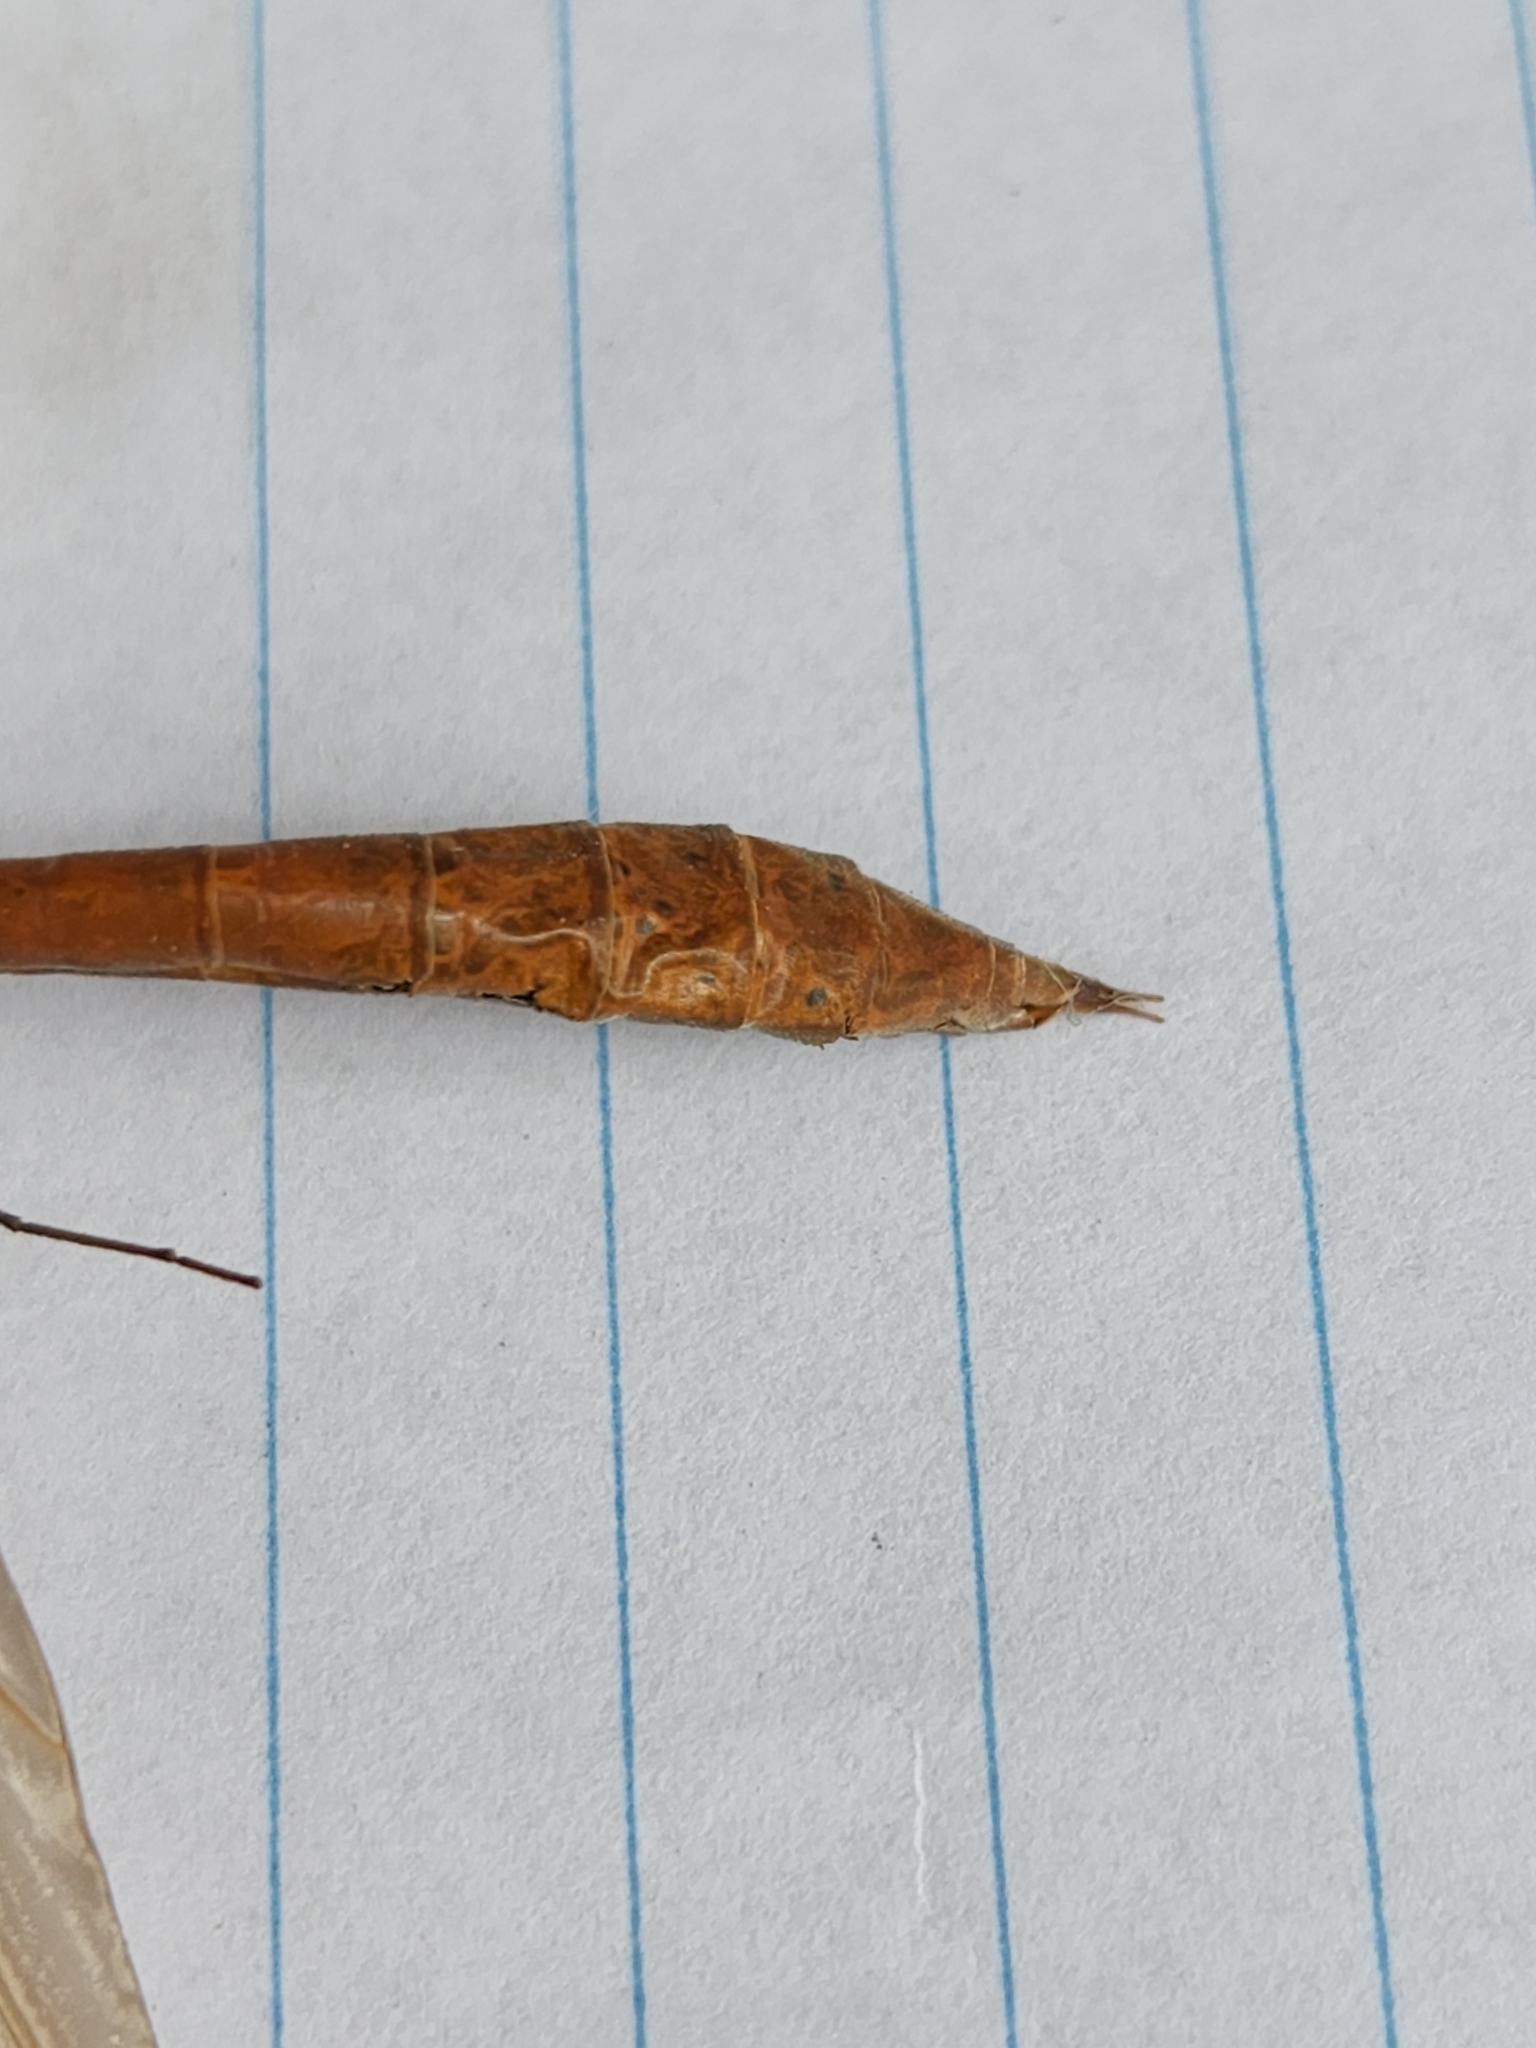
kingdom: Animalia
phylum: Arthropoda
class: Insecta
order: Diptera
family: Tipulidae
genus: Holorusia
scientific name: Holorusia hespera
